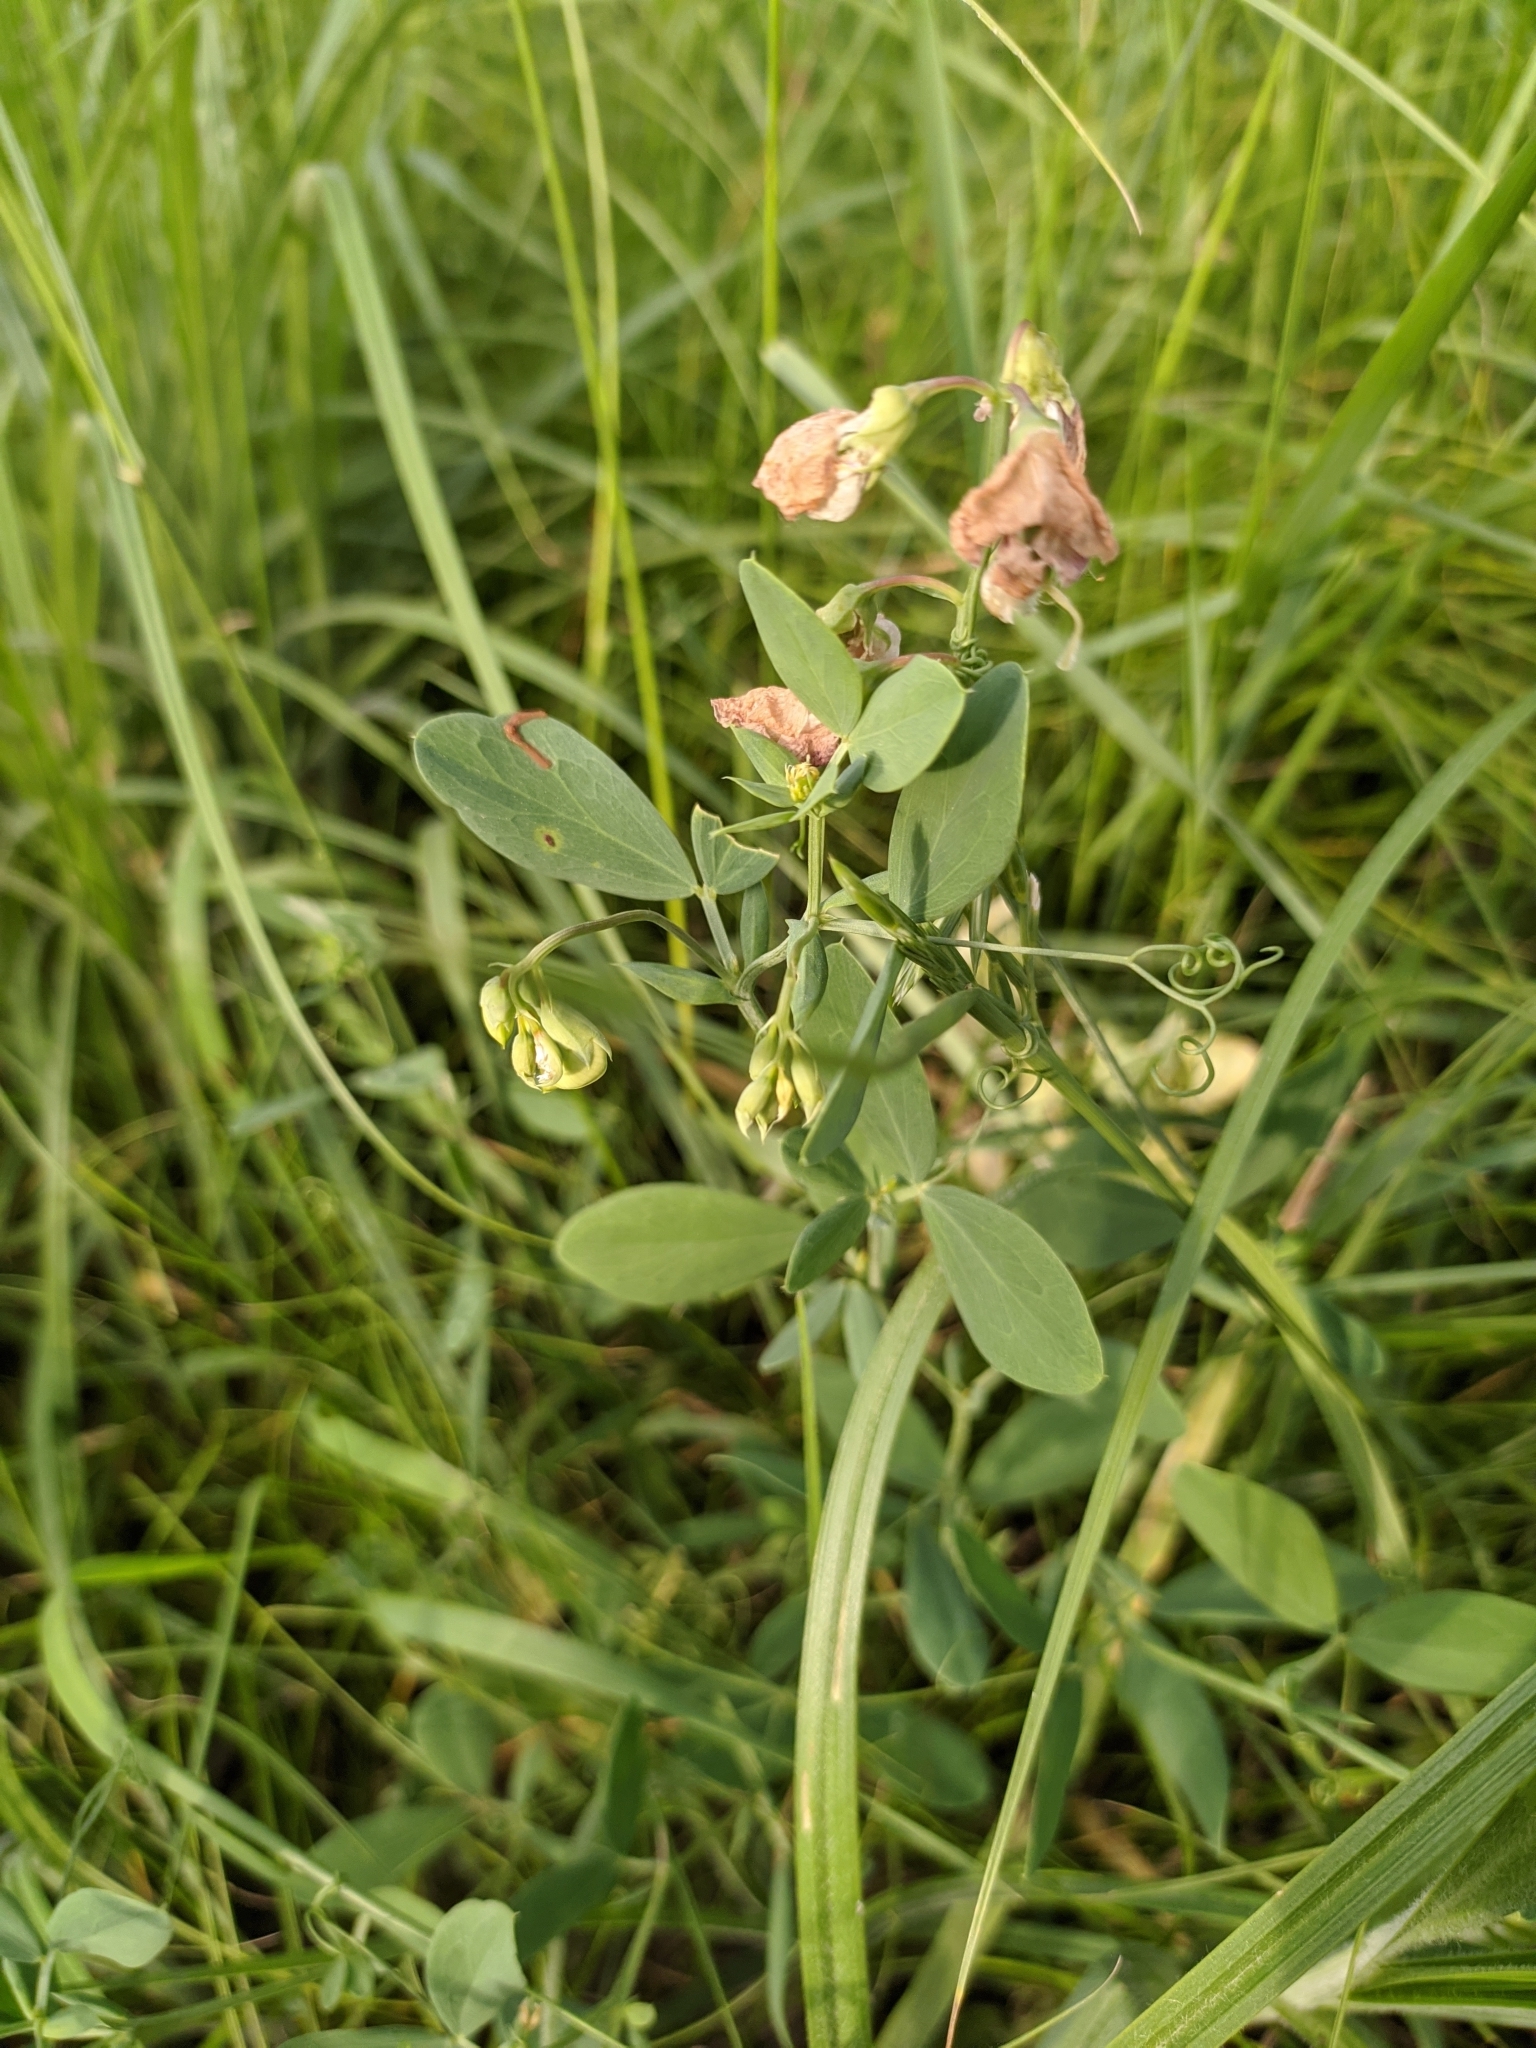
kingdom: Plantae
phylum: Tracheophyta
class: Magnoliopsida
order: Fabales
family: Fabaceae
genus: Lathyrus
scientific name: Lathyrus tuberosus
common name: Tuberous pea
